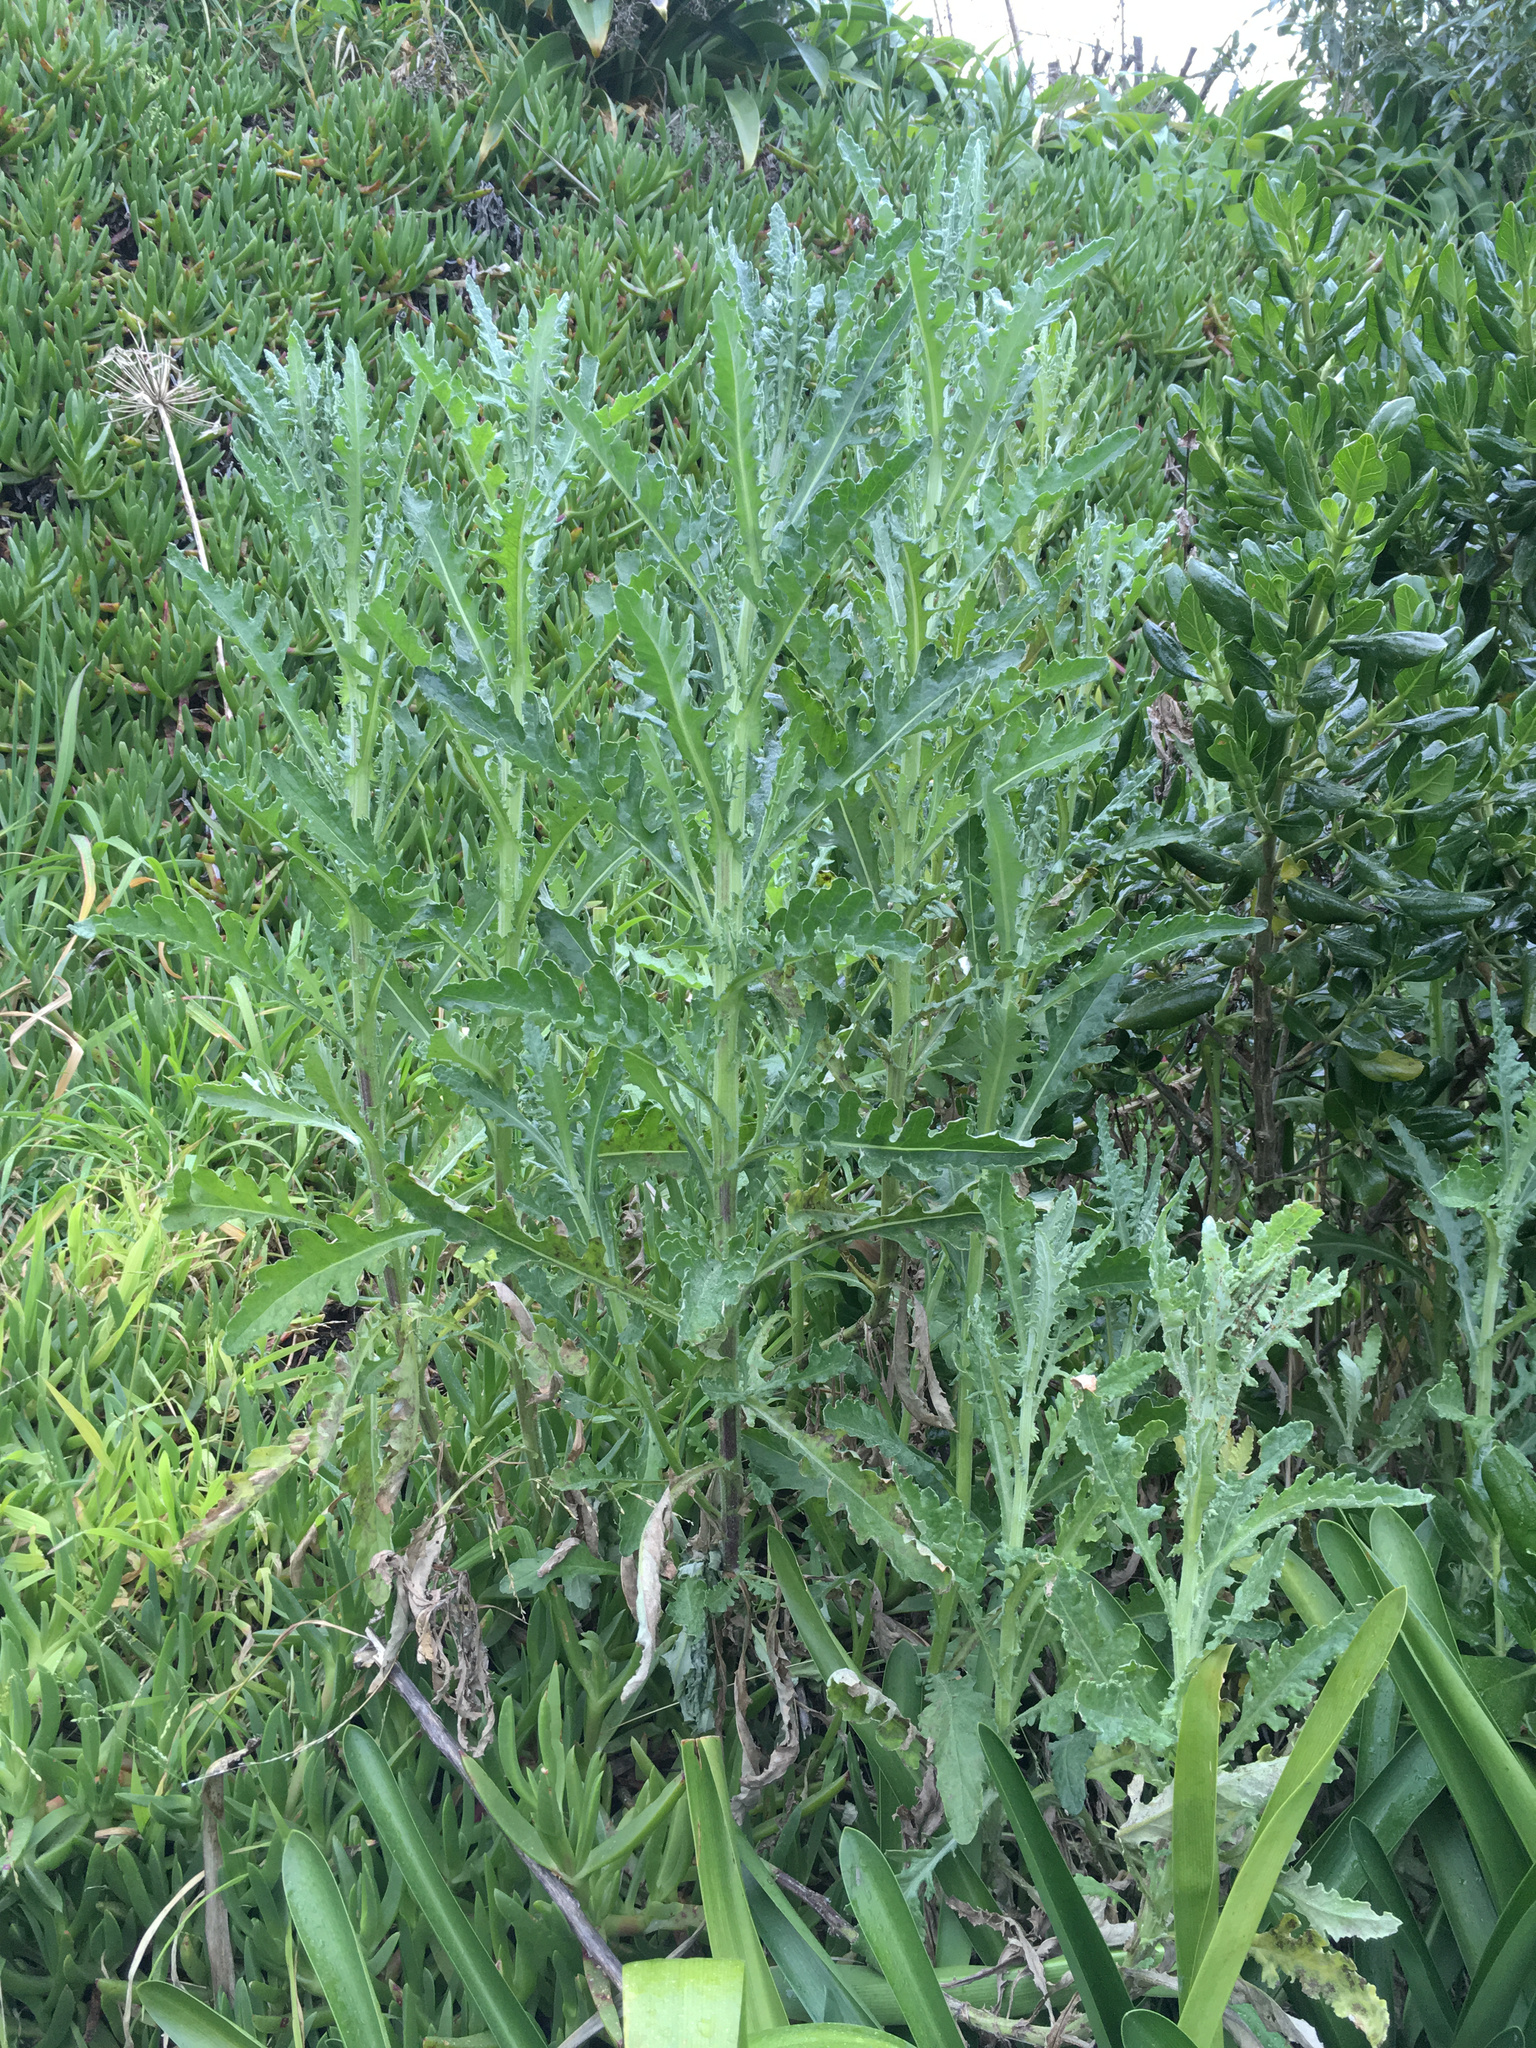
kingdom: Plantae
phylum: Tracheophyta
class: Magnoliopsida
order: Asterales
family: Asteraceae
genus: Senecio
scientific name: Senecio glomeratus
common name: Cutleaf burnweed
